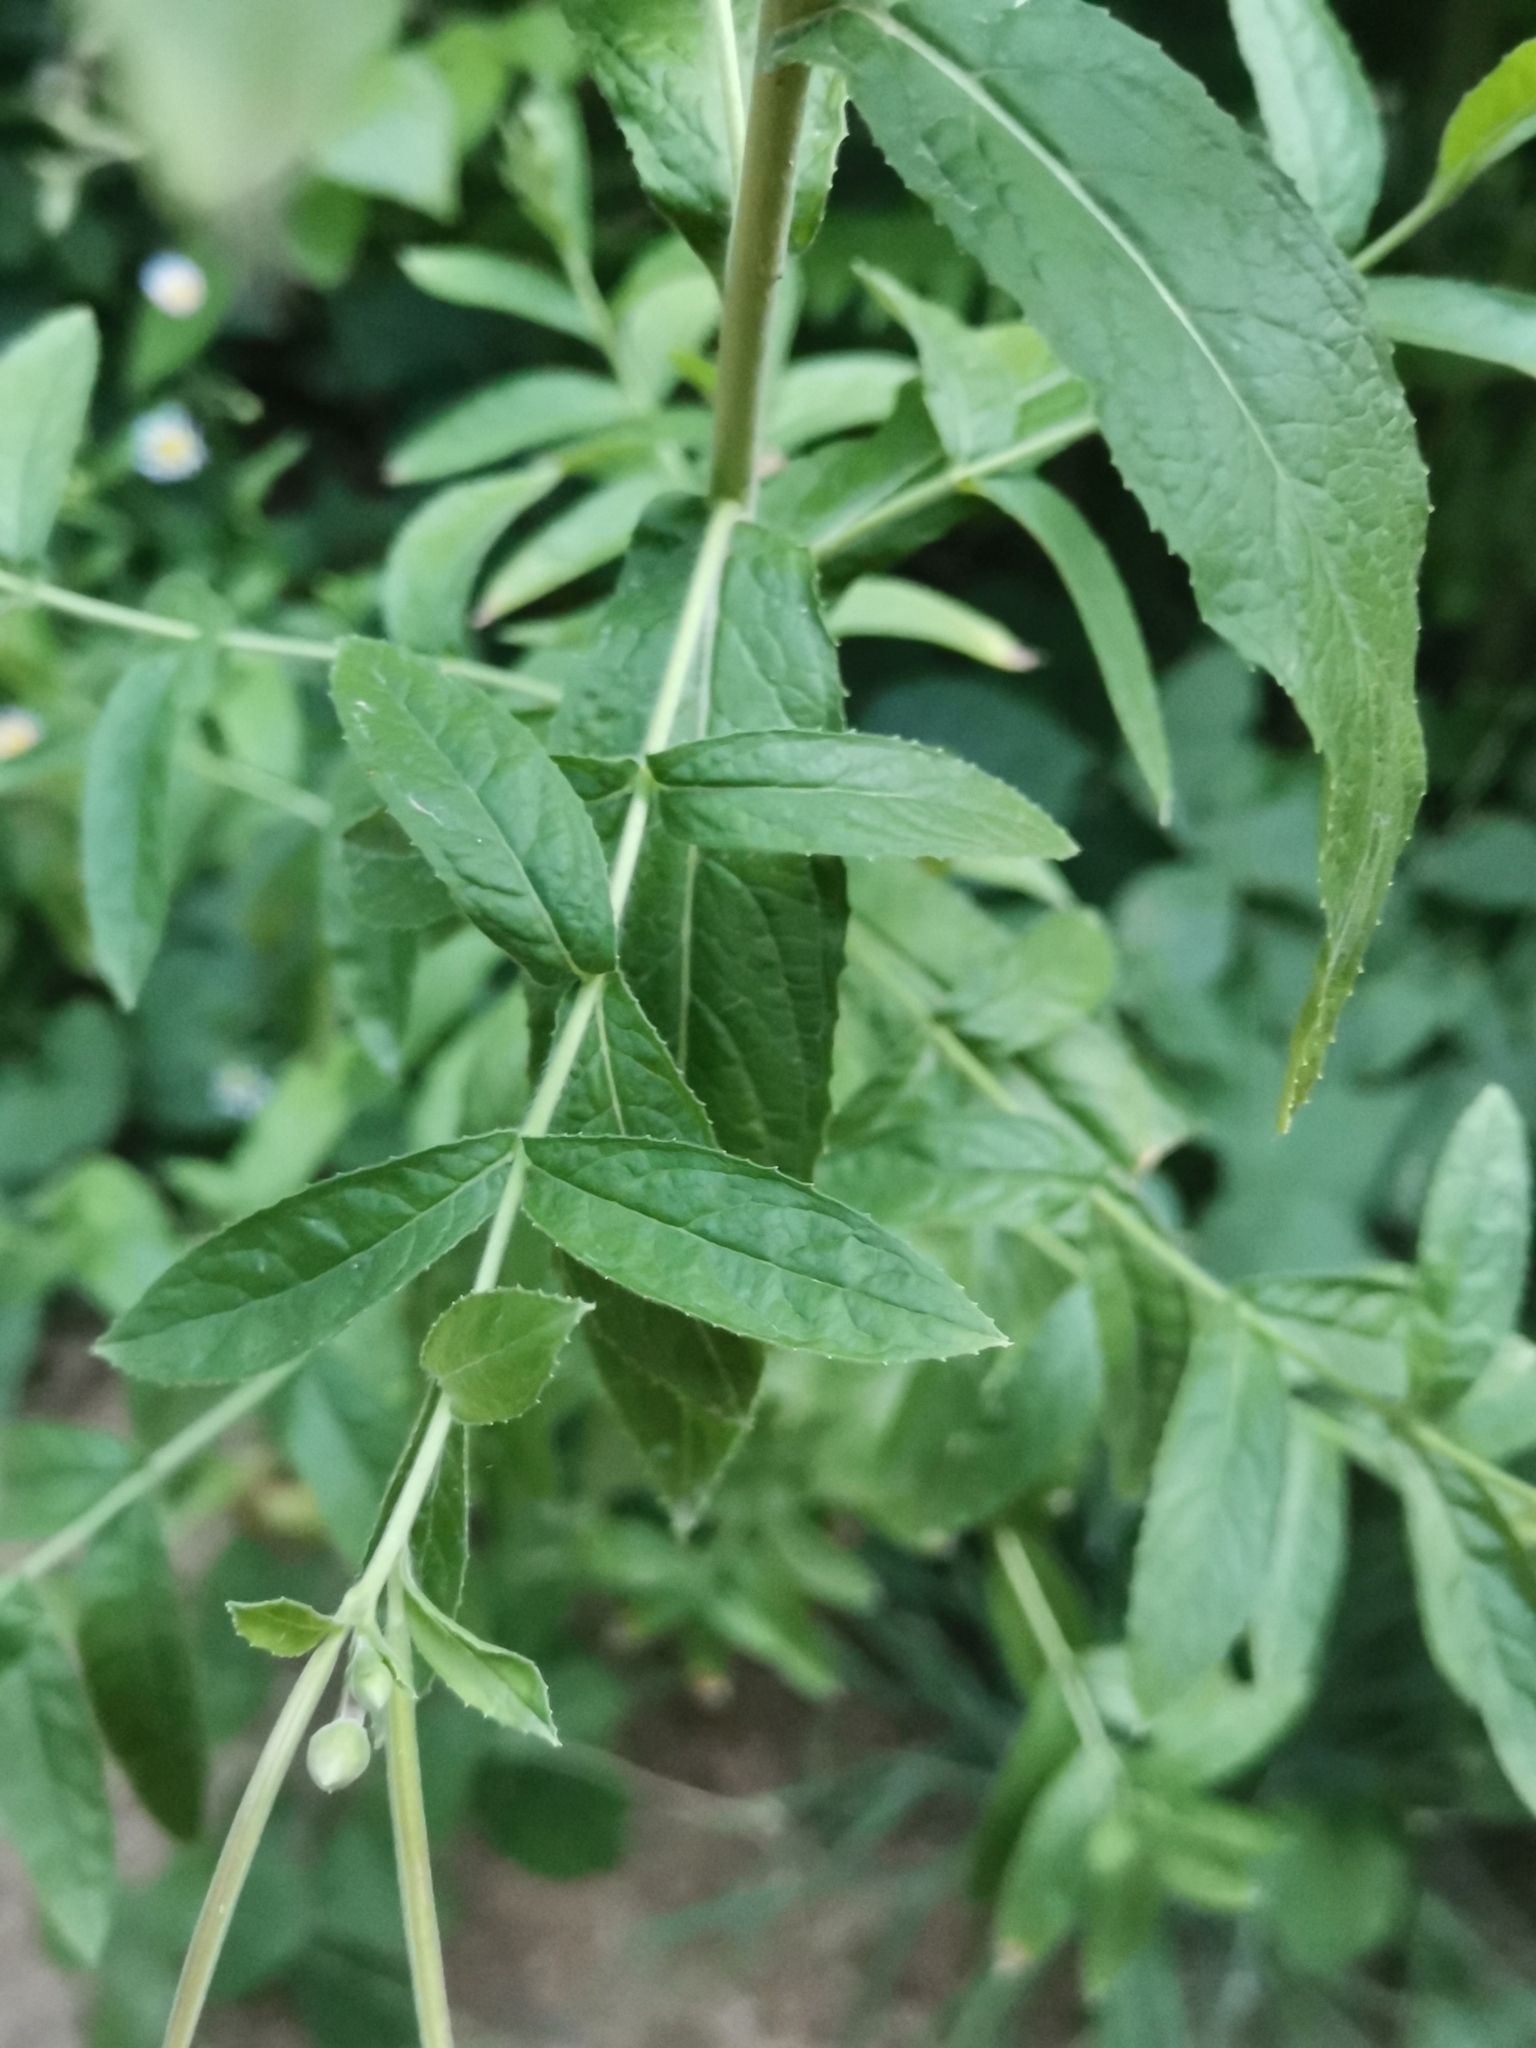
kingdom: Plantae
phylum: Tracheophyta
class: Magnoliopsida
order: Myrtales
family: Onagraceae
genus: Epilobium
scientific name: Epilobium hirsutum
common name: Great willowherb
